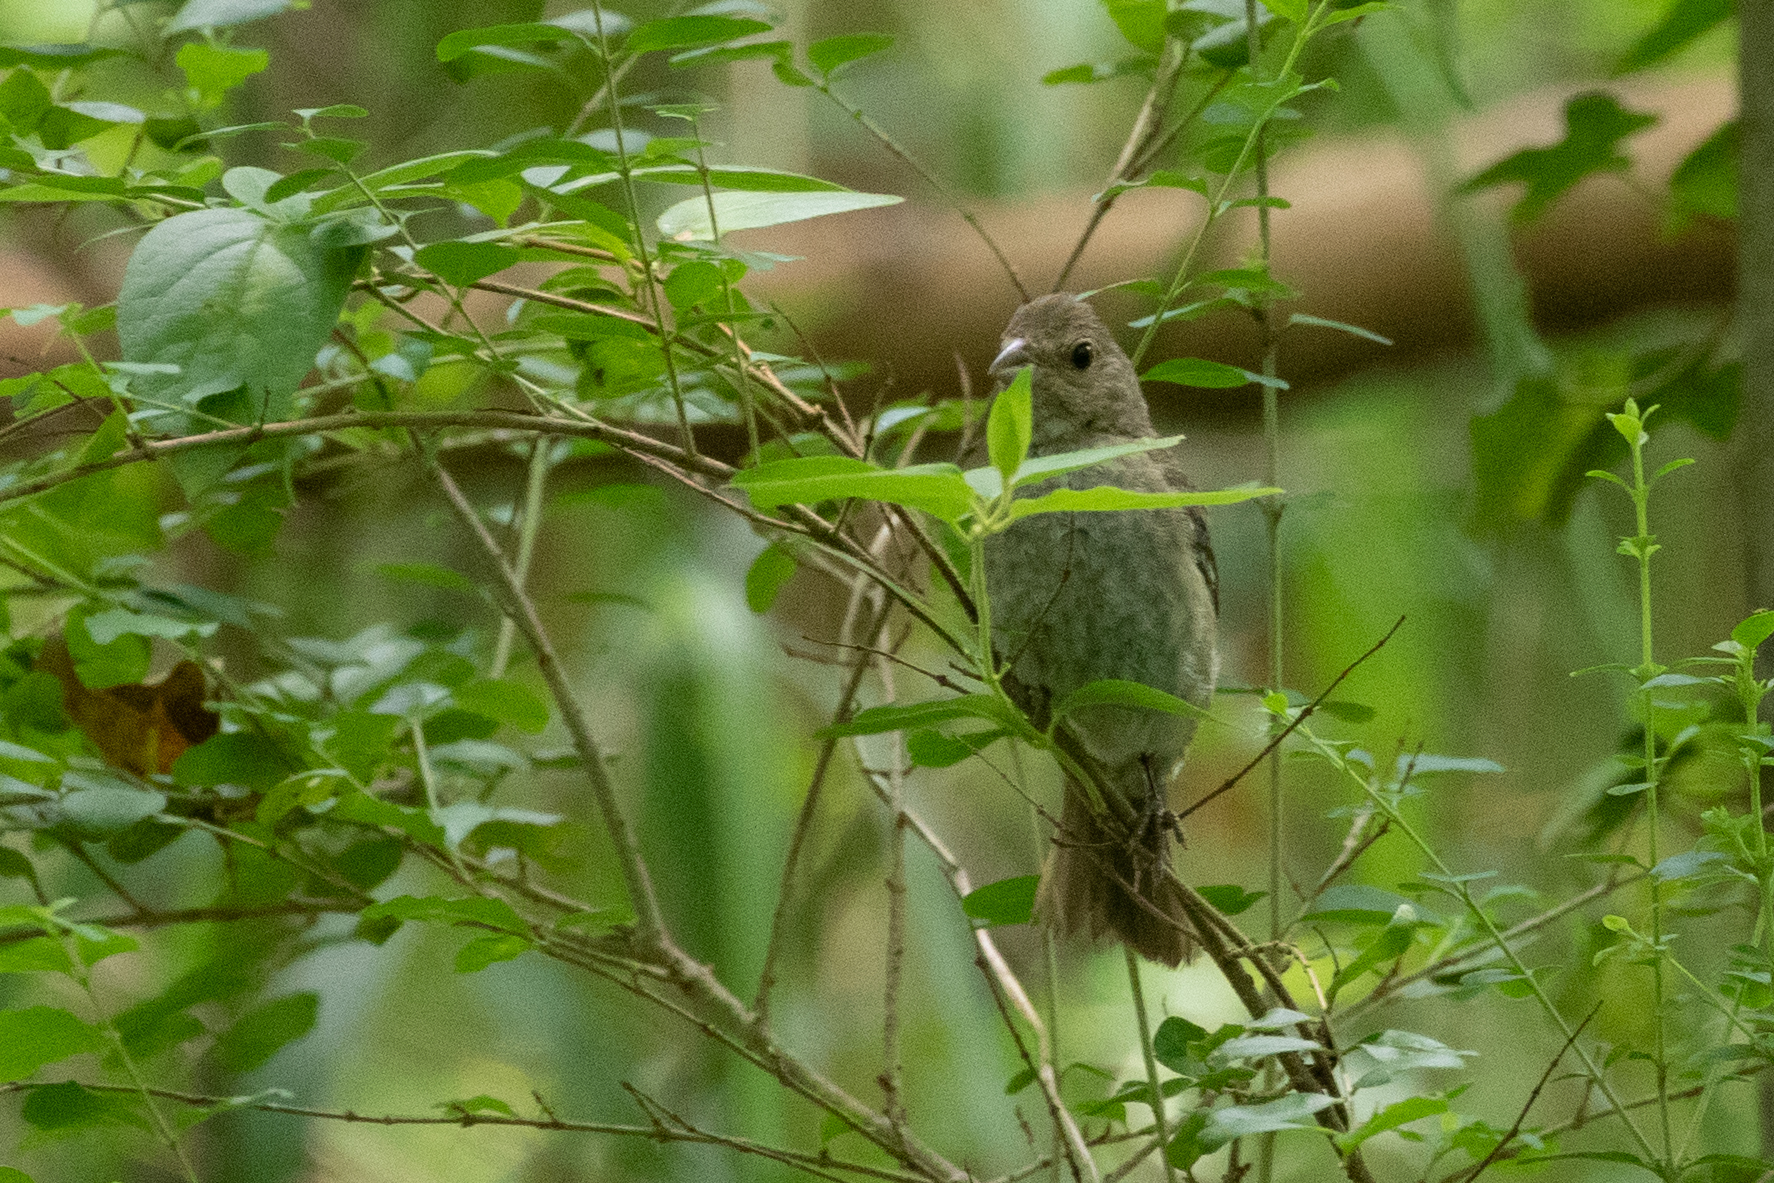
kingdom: Animalia
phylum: Chordata
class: Aves
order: Passeriformes
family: Cardinalidae
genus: Passerina
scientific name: Passerina cyanea
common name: Indigo bunting
